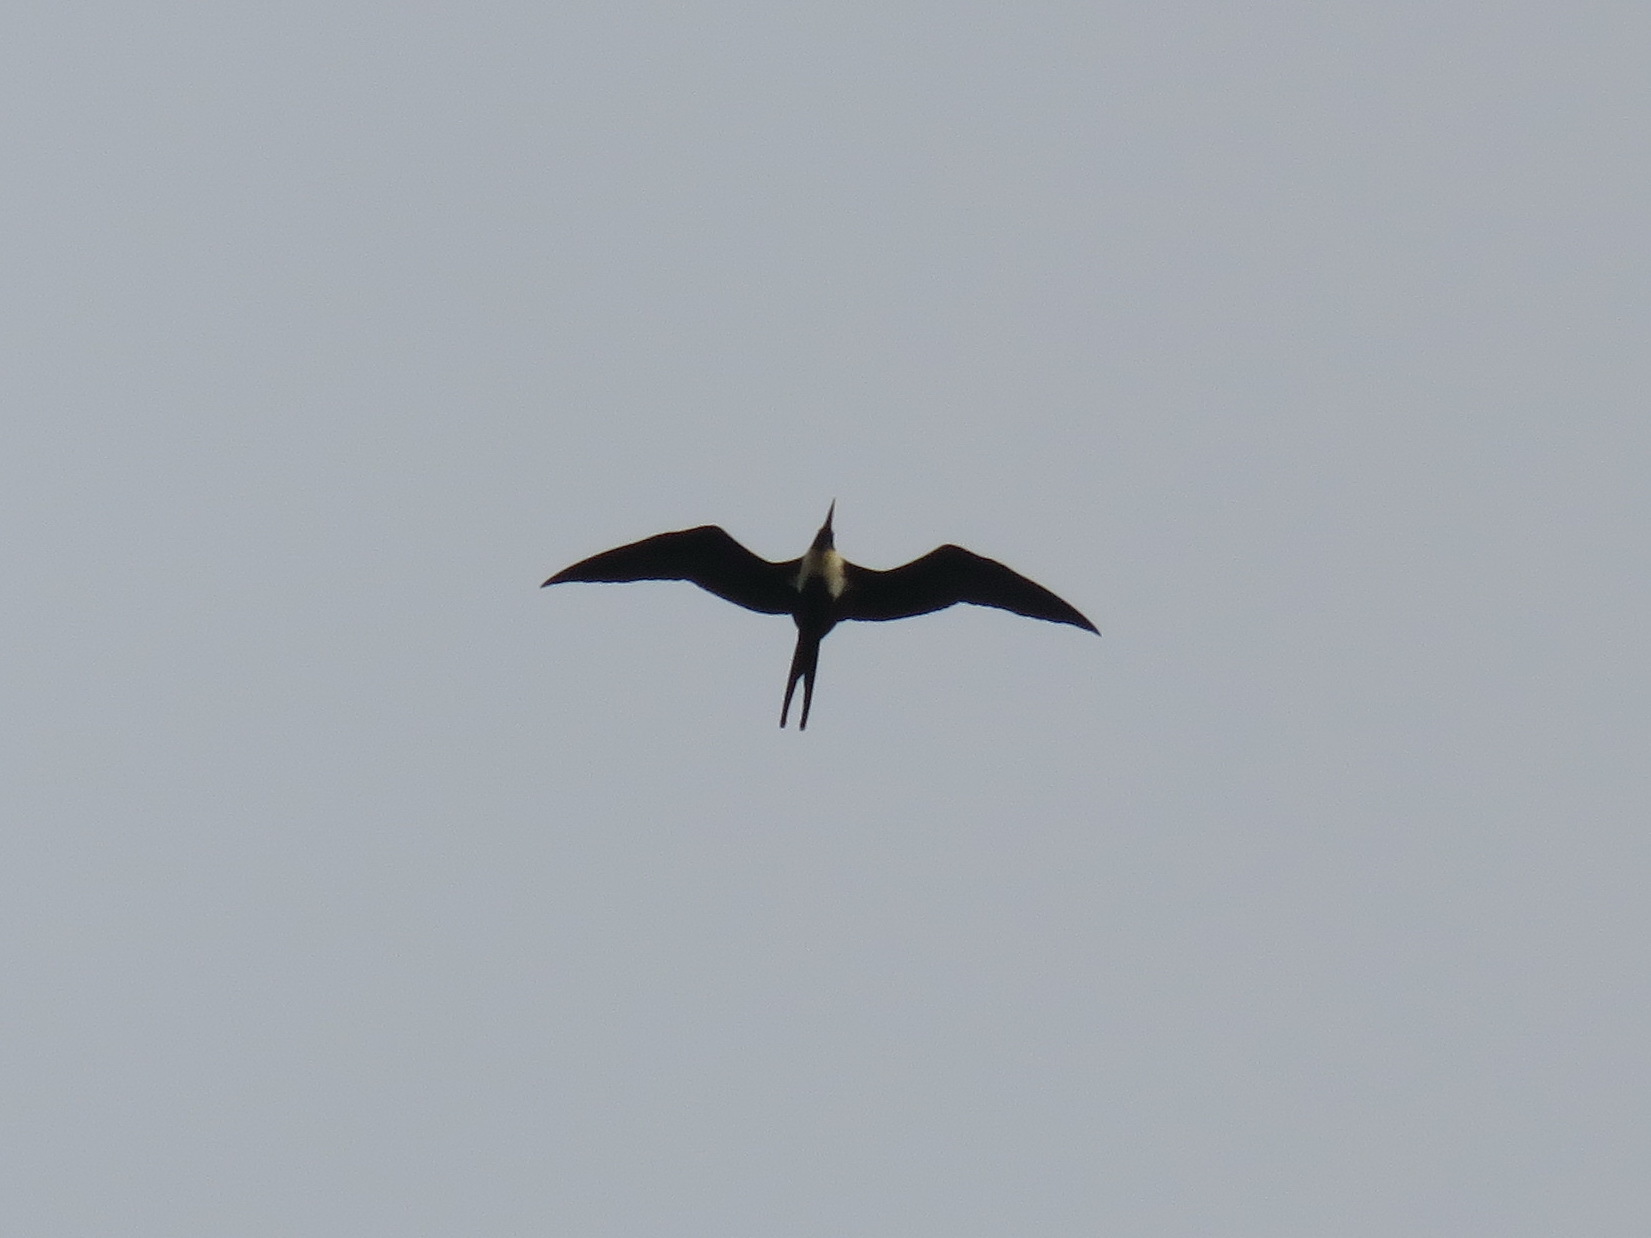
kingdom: Animalia
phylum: Chordata
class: Aves
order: Suliformes
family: Fregatidae
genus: Fregata
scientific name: Fregata minor
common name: Great frigatebird
